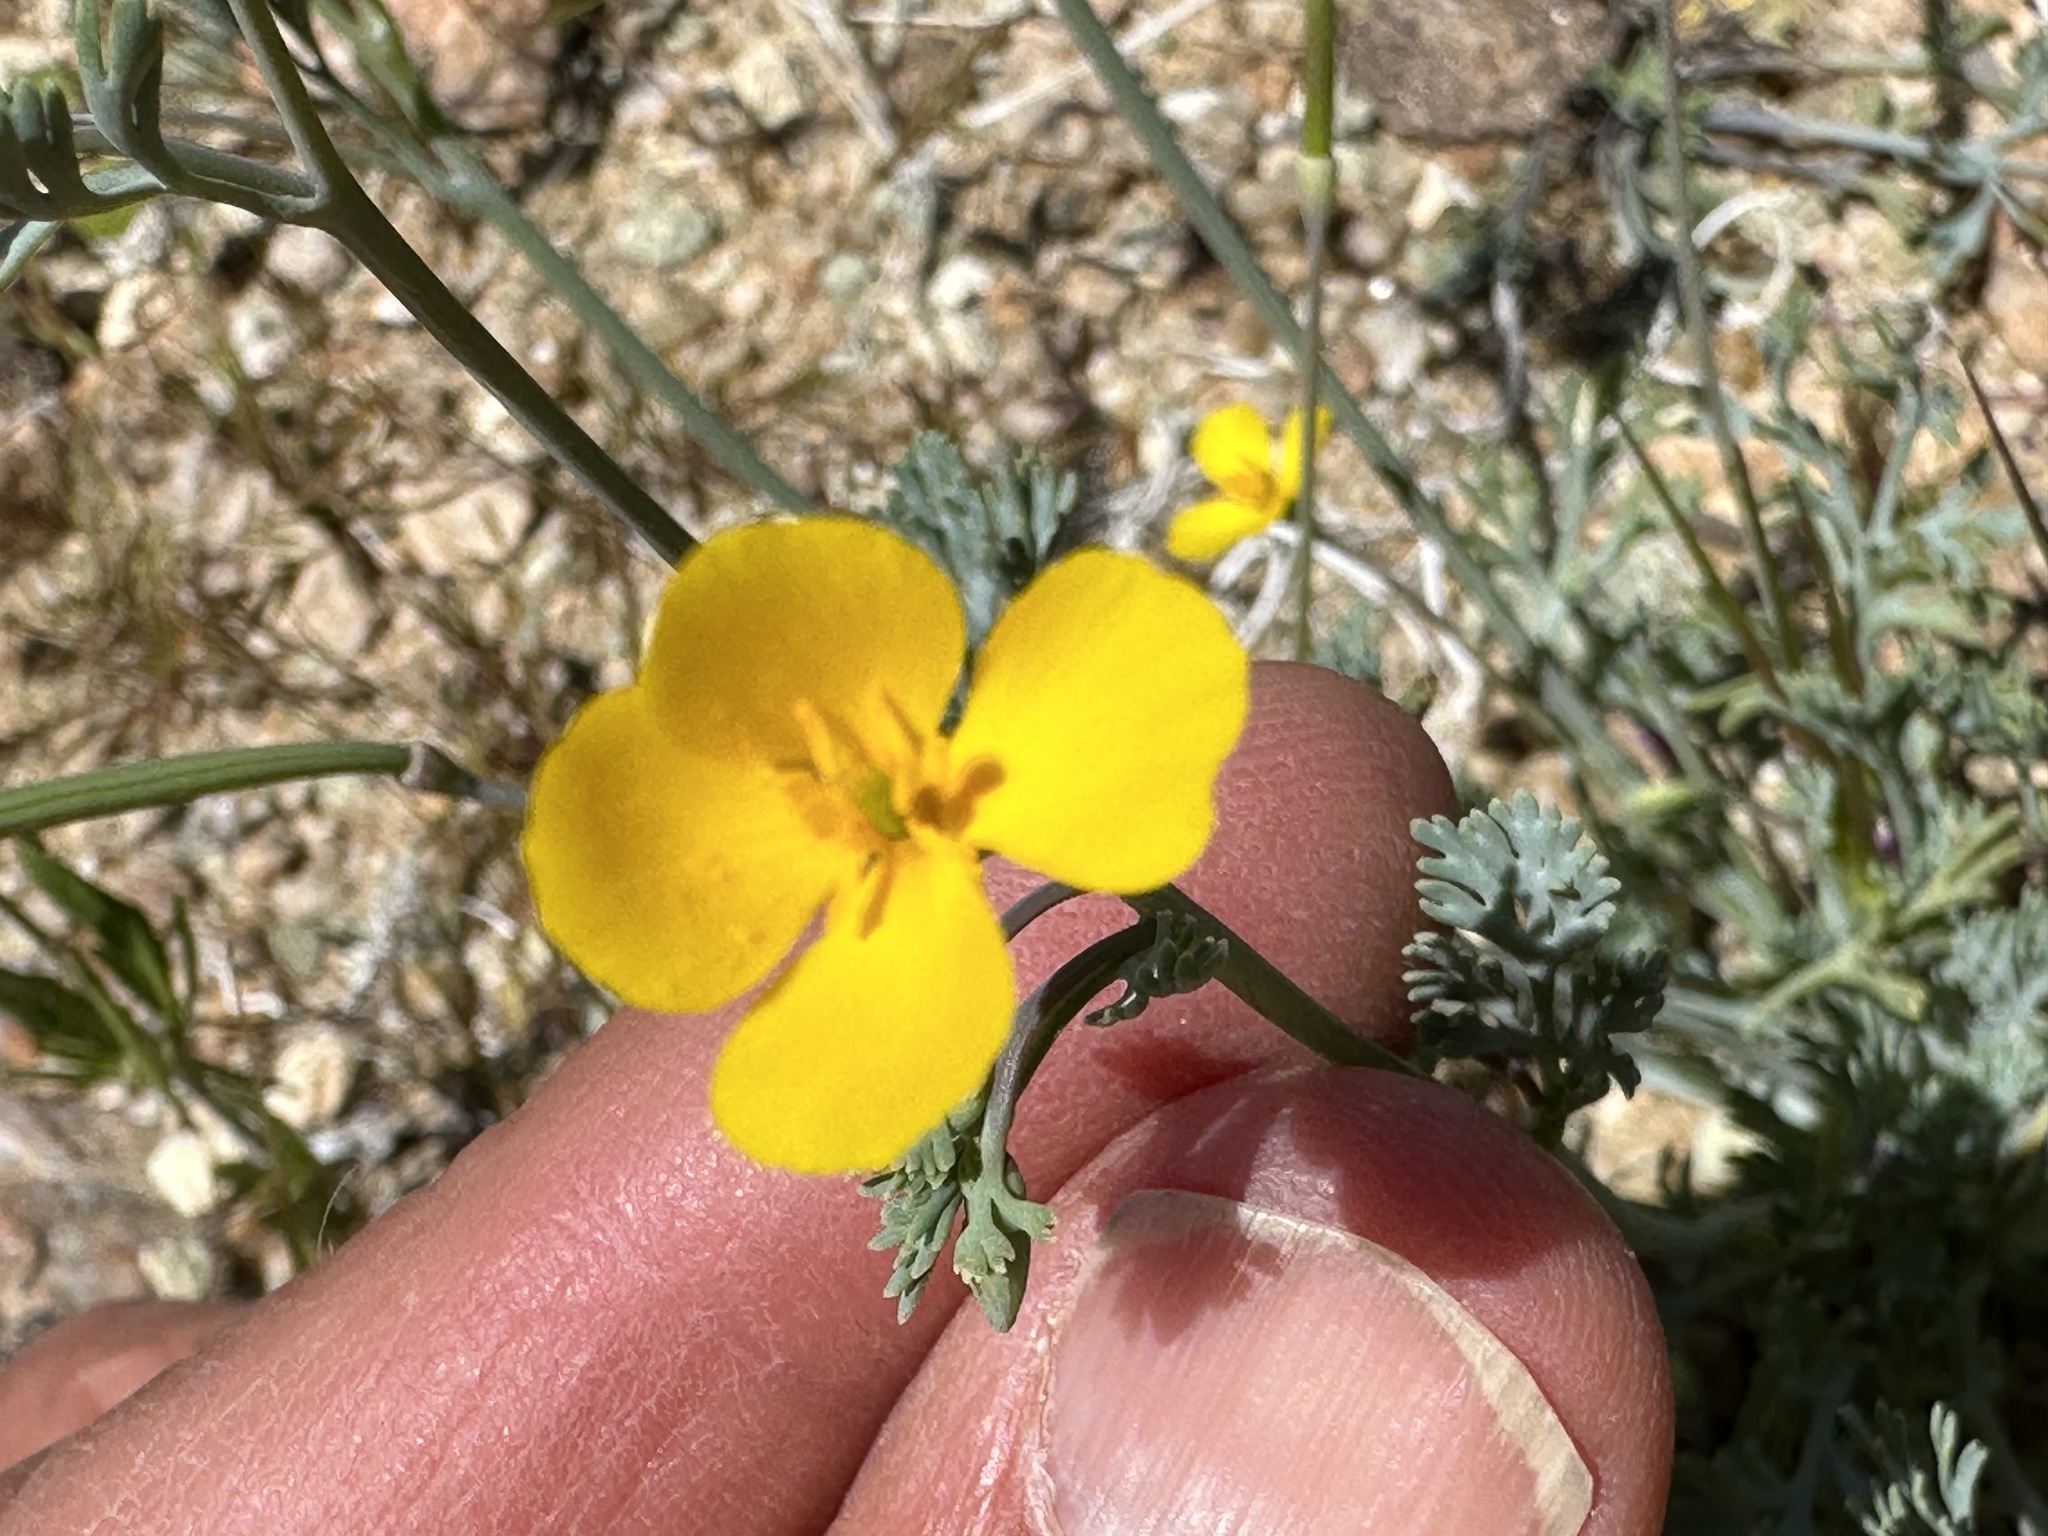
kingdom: Plantae
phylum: Tracheophyta
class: Magnoliopsida
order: Ranunculales
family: Papaveraceae
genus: Eschscholzia
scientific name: Eschscholzia minutiflora
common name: Small-flower california-poppy
